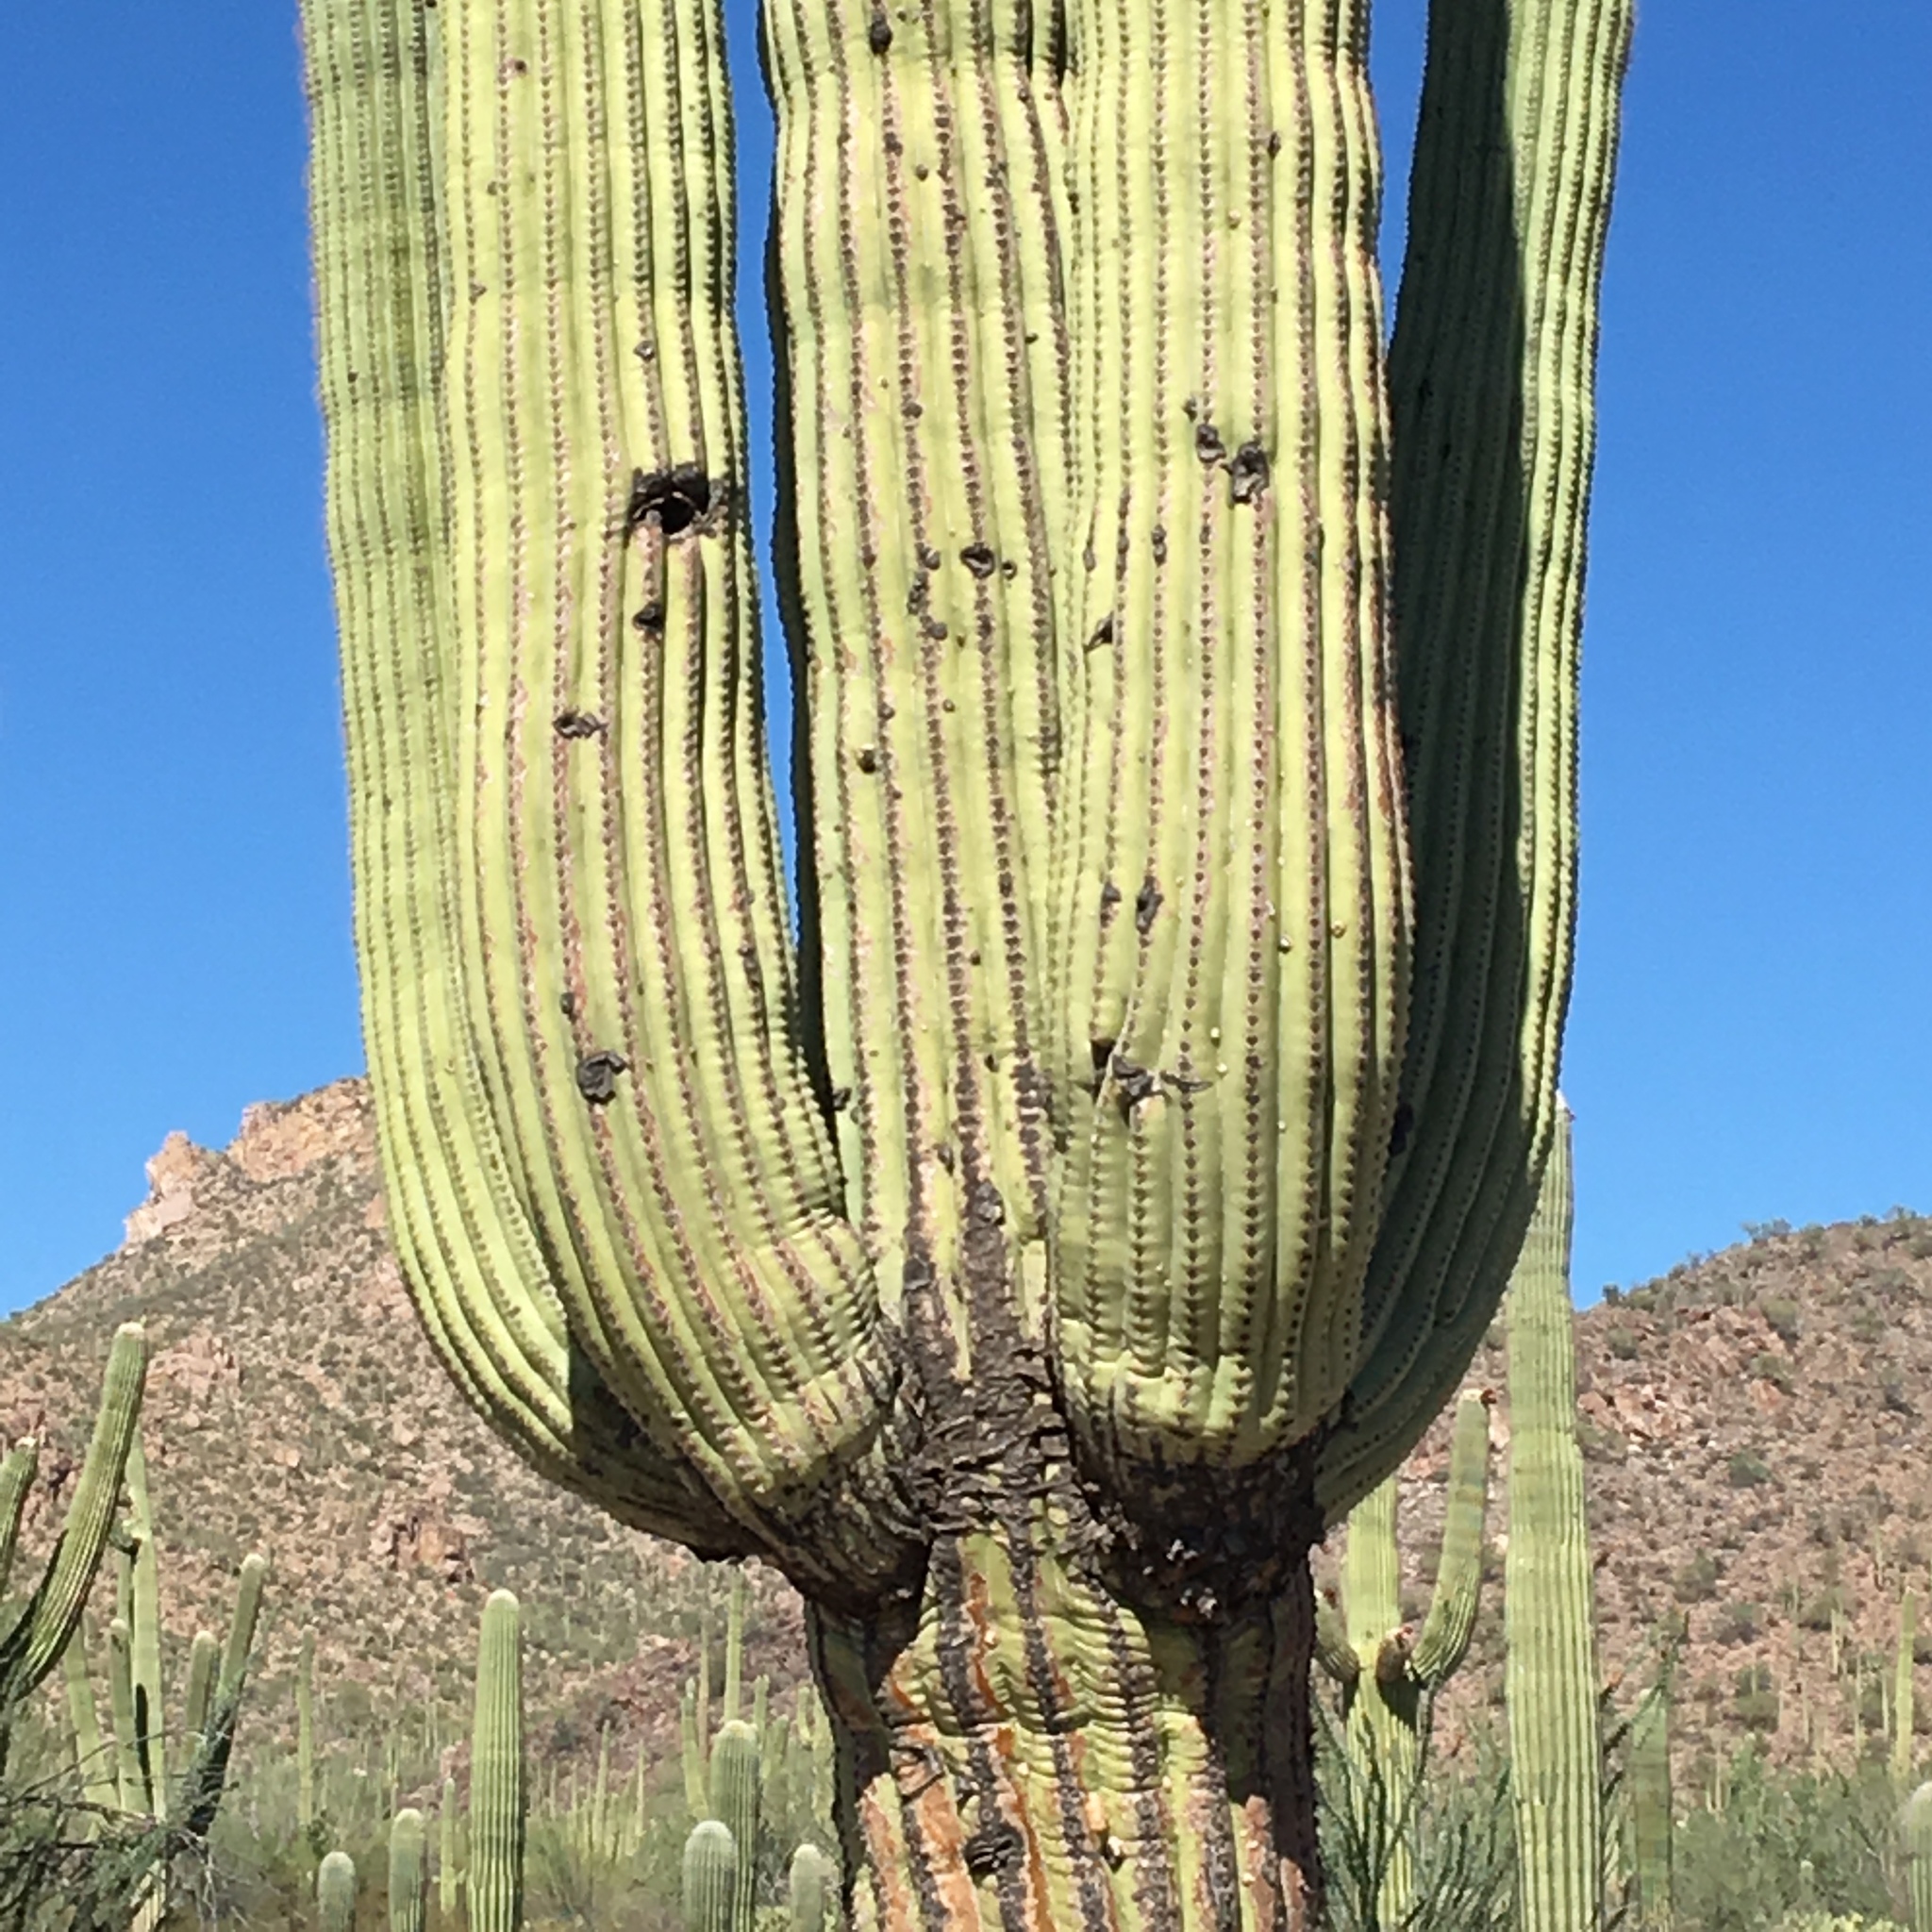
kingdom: Plantae
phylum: Tracheophyta
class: Magnoliopsida
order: Caryophyllales
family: Cactaceae
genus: Carnegiea
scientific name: Carnegiea gigantea
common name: Saguaro
